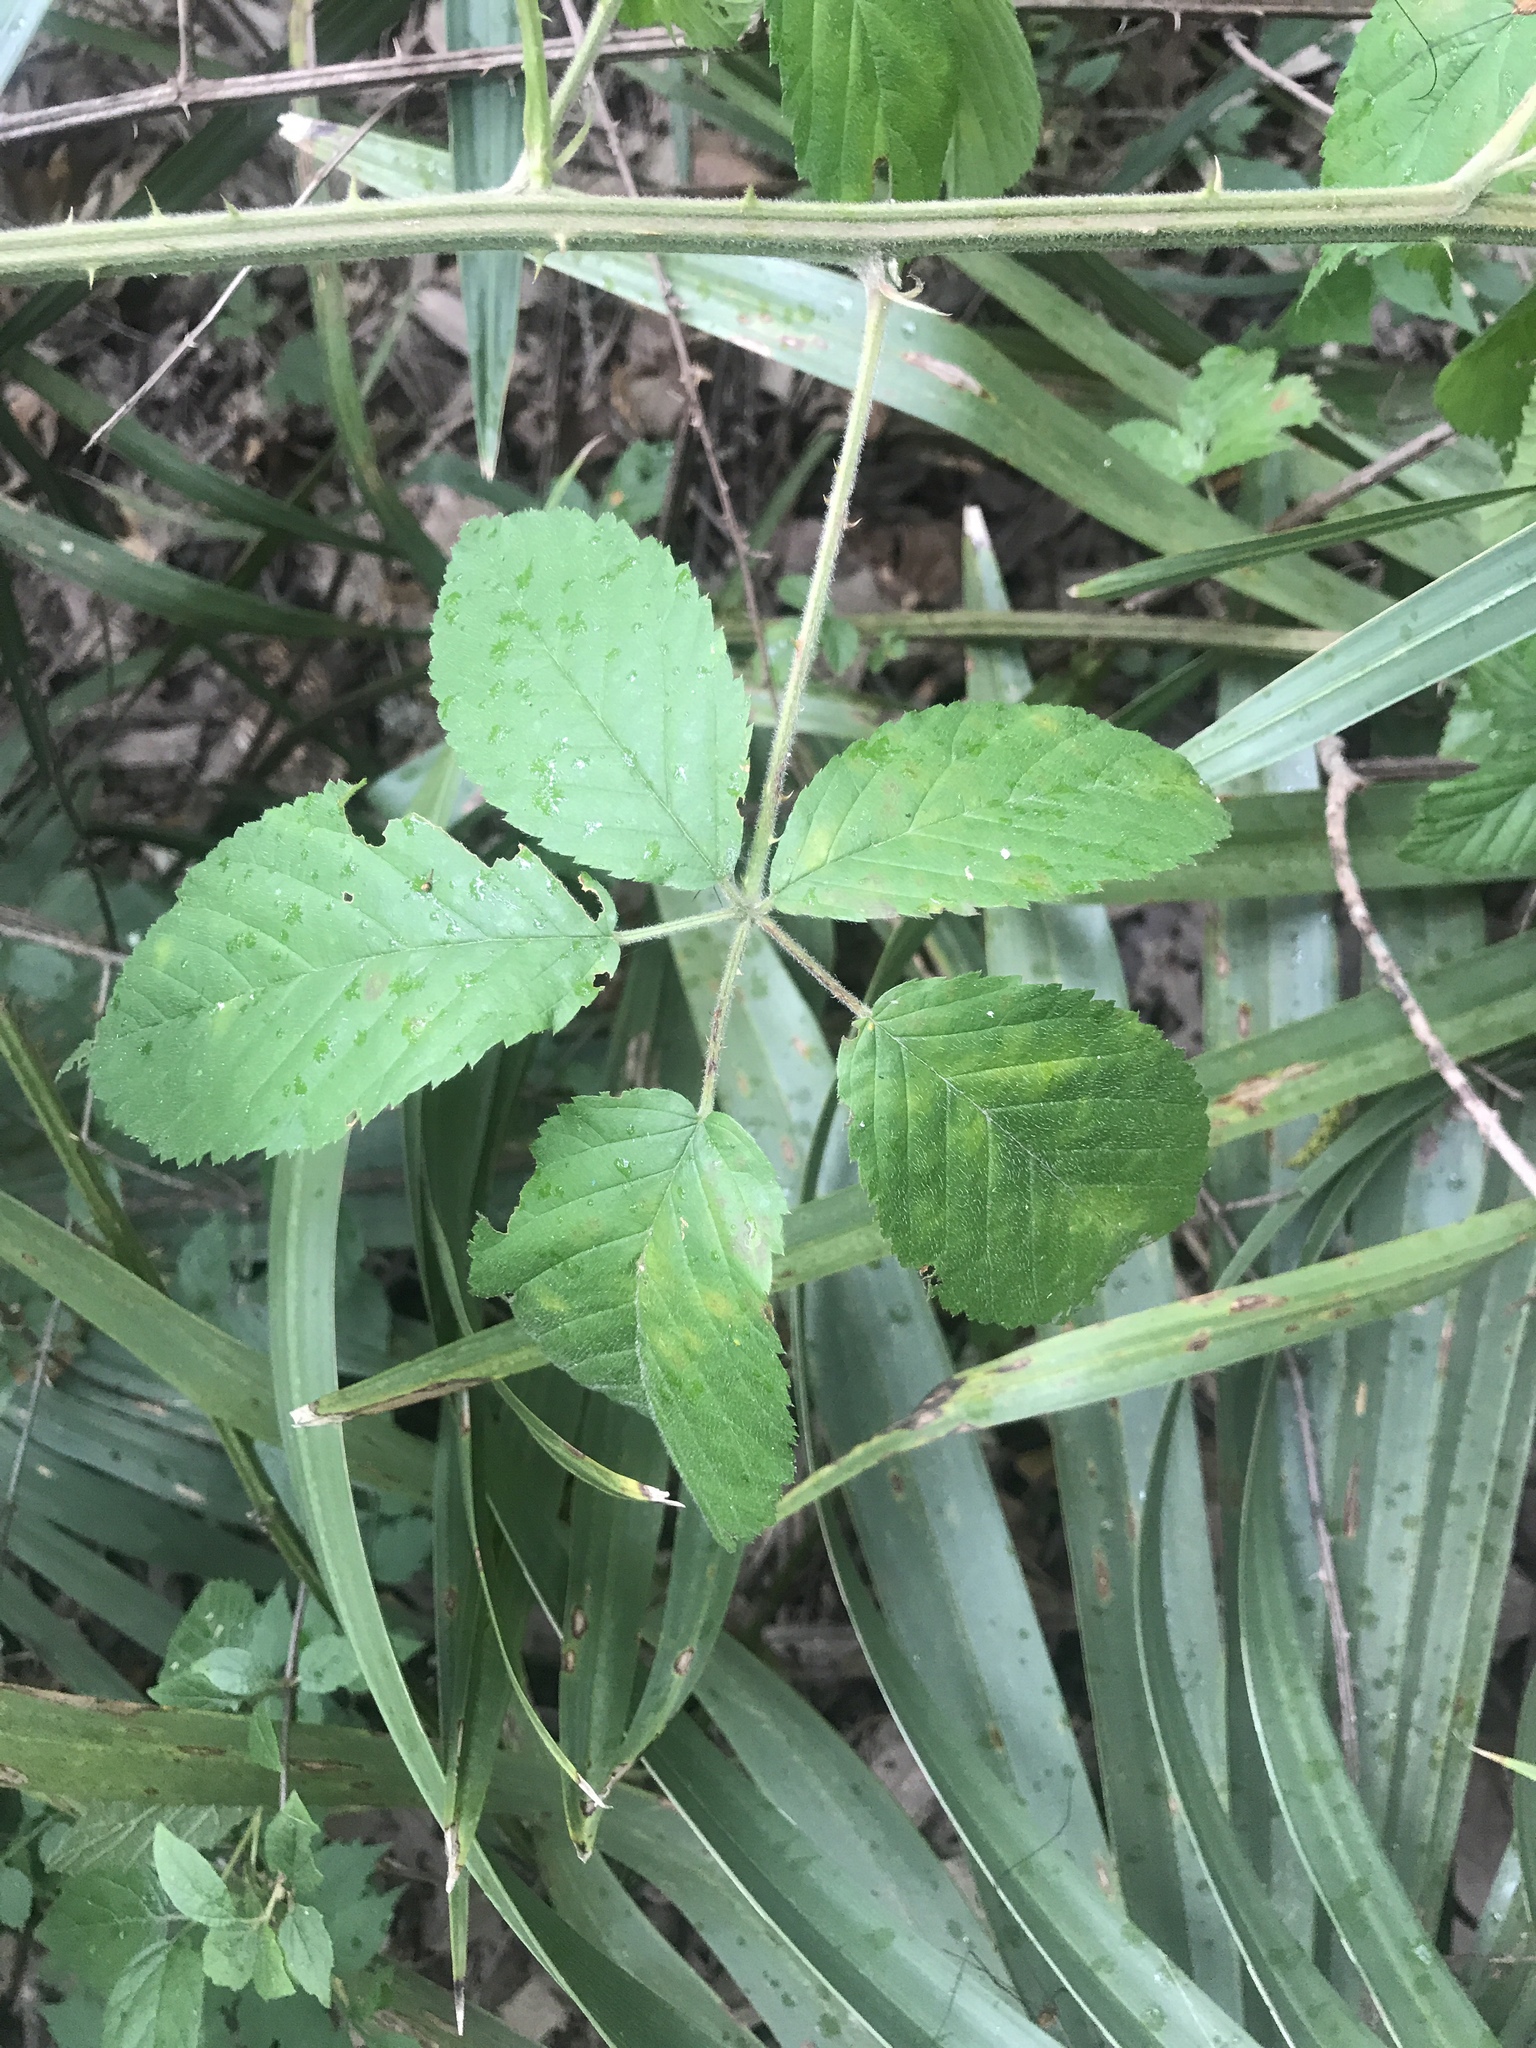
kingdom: Plantae
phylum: Tracheophyta
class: Magnoliopsida
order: Rosales
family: Rosaceae
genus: Rubus
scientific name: Rubus pensilvanicus
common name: Pennsylvania blackberry
